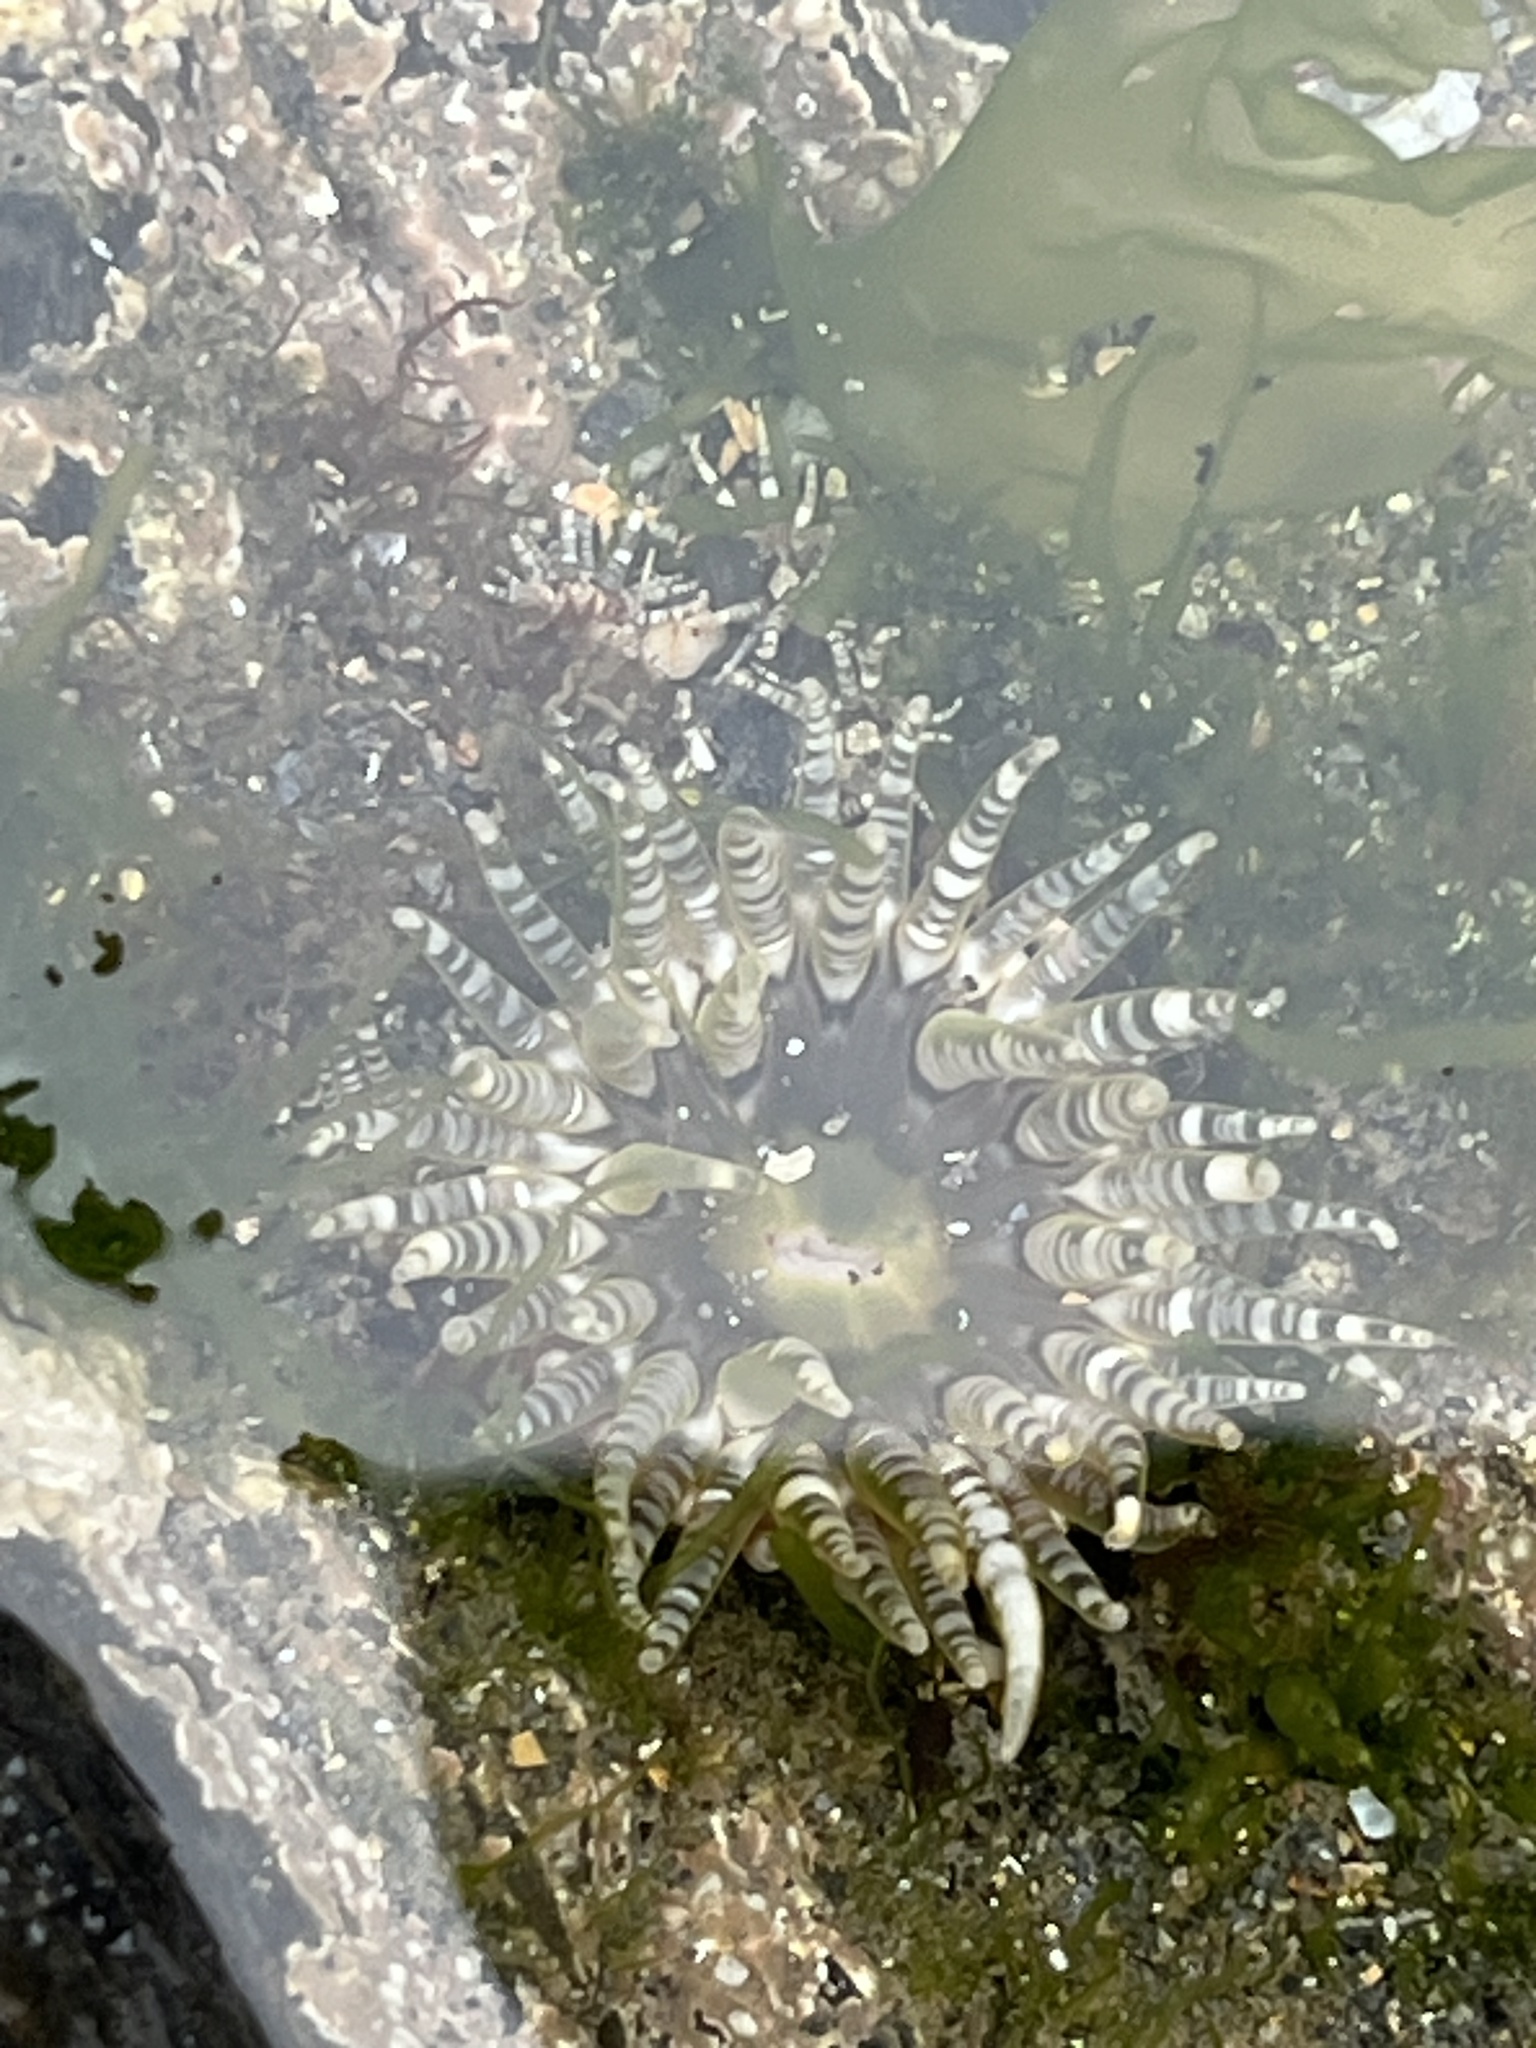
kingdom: Animalia
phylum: Cnidaria
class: Anthozoa
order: Actiniaria
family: Actiniidae
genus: Bunodactis
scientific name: Bunodactis verrucosa
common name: Gem anemone
